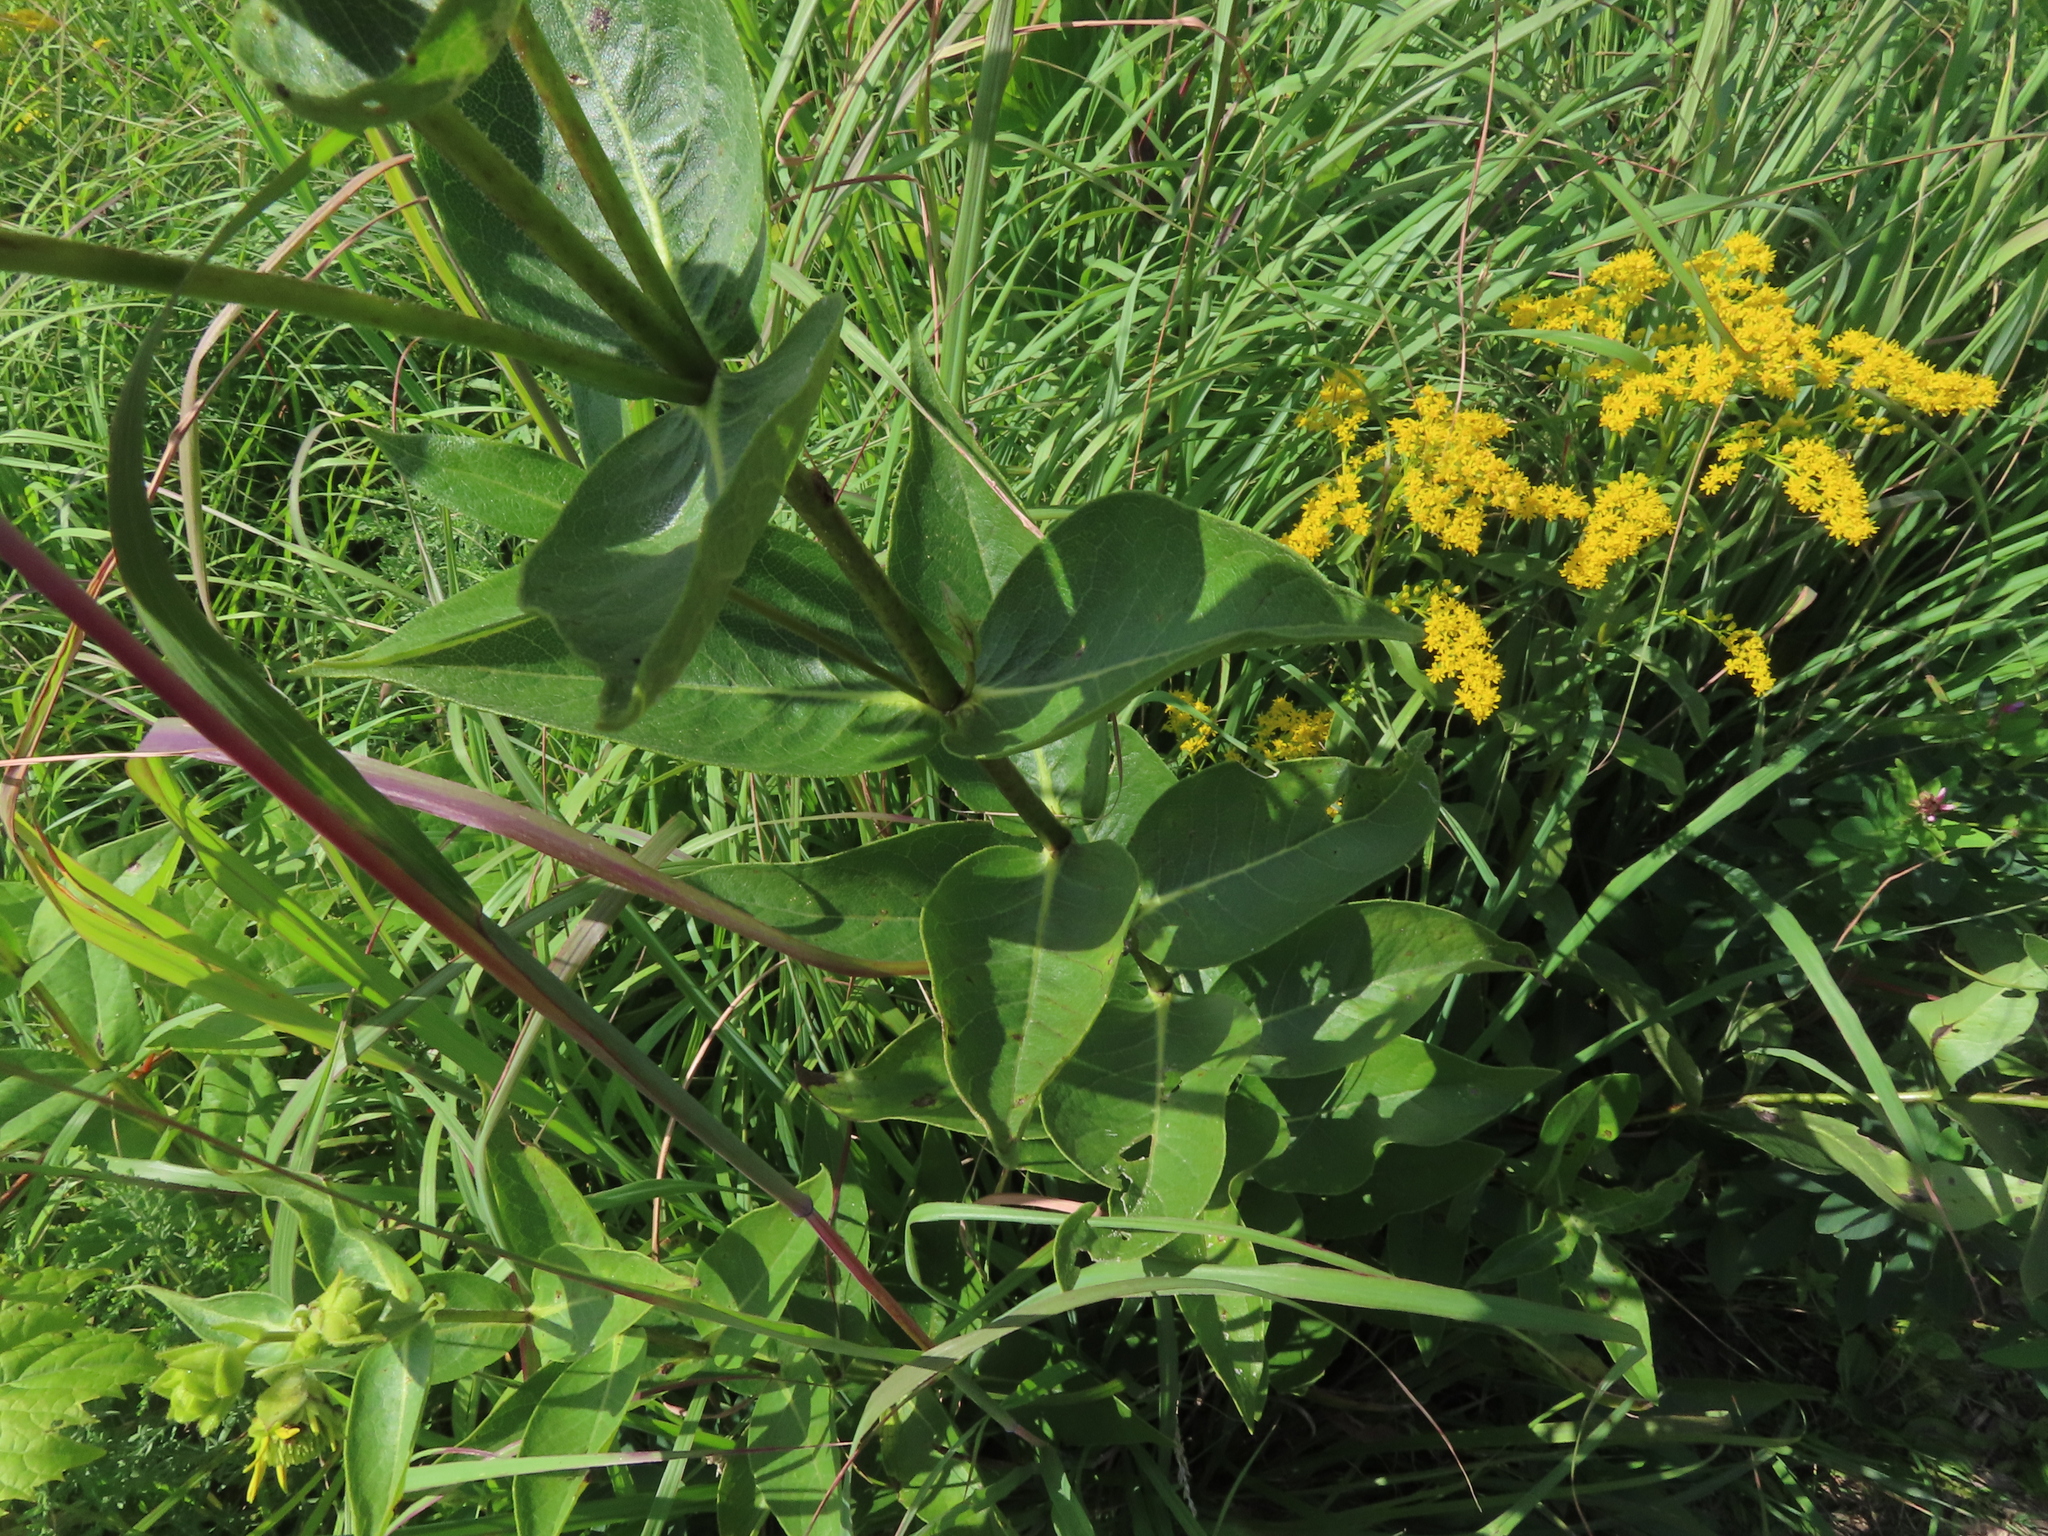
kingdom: Plantae
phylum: Tracheophyta
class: Magnoliopsida
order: Asterales
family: Asteraceae
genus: Silphium
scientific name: Silphium integrifolium
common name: Whole-leaf rosinweed
